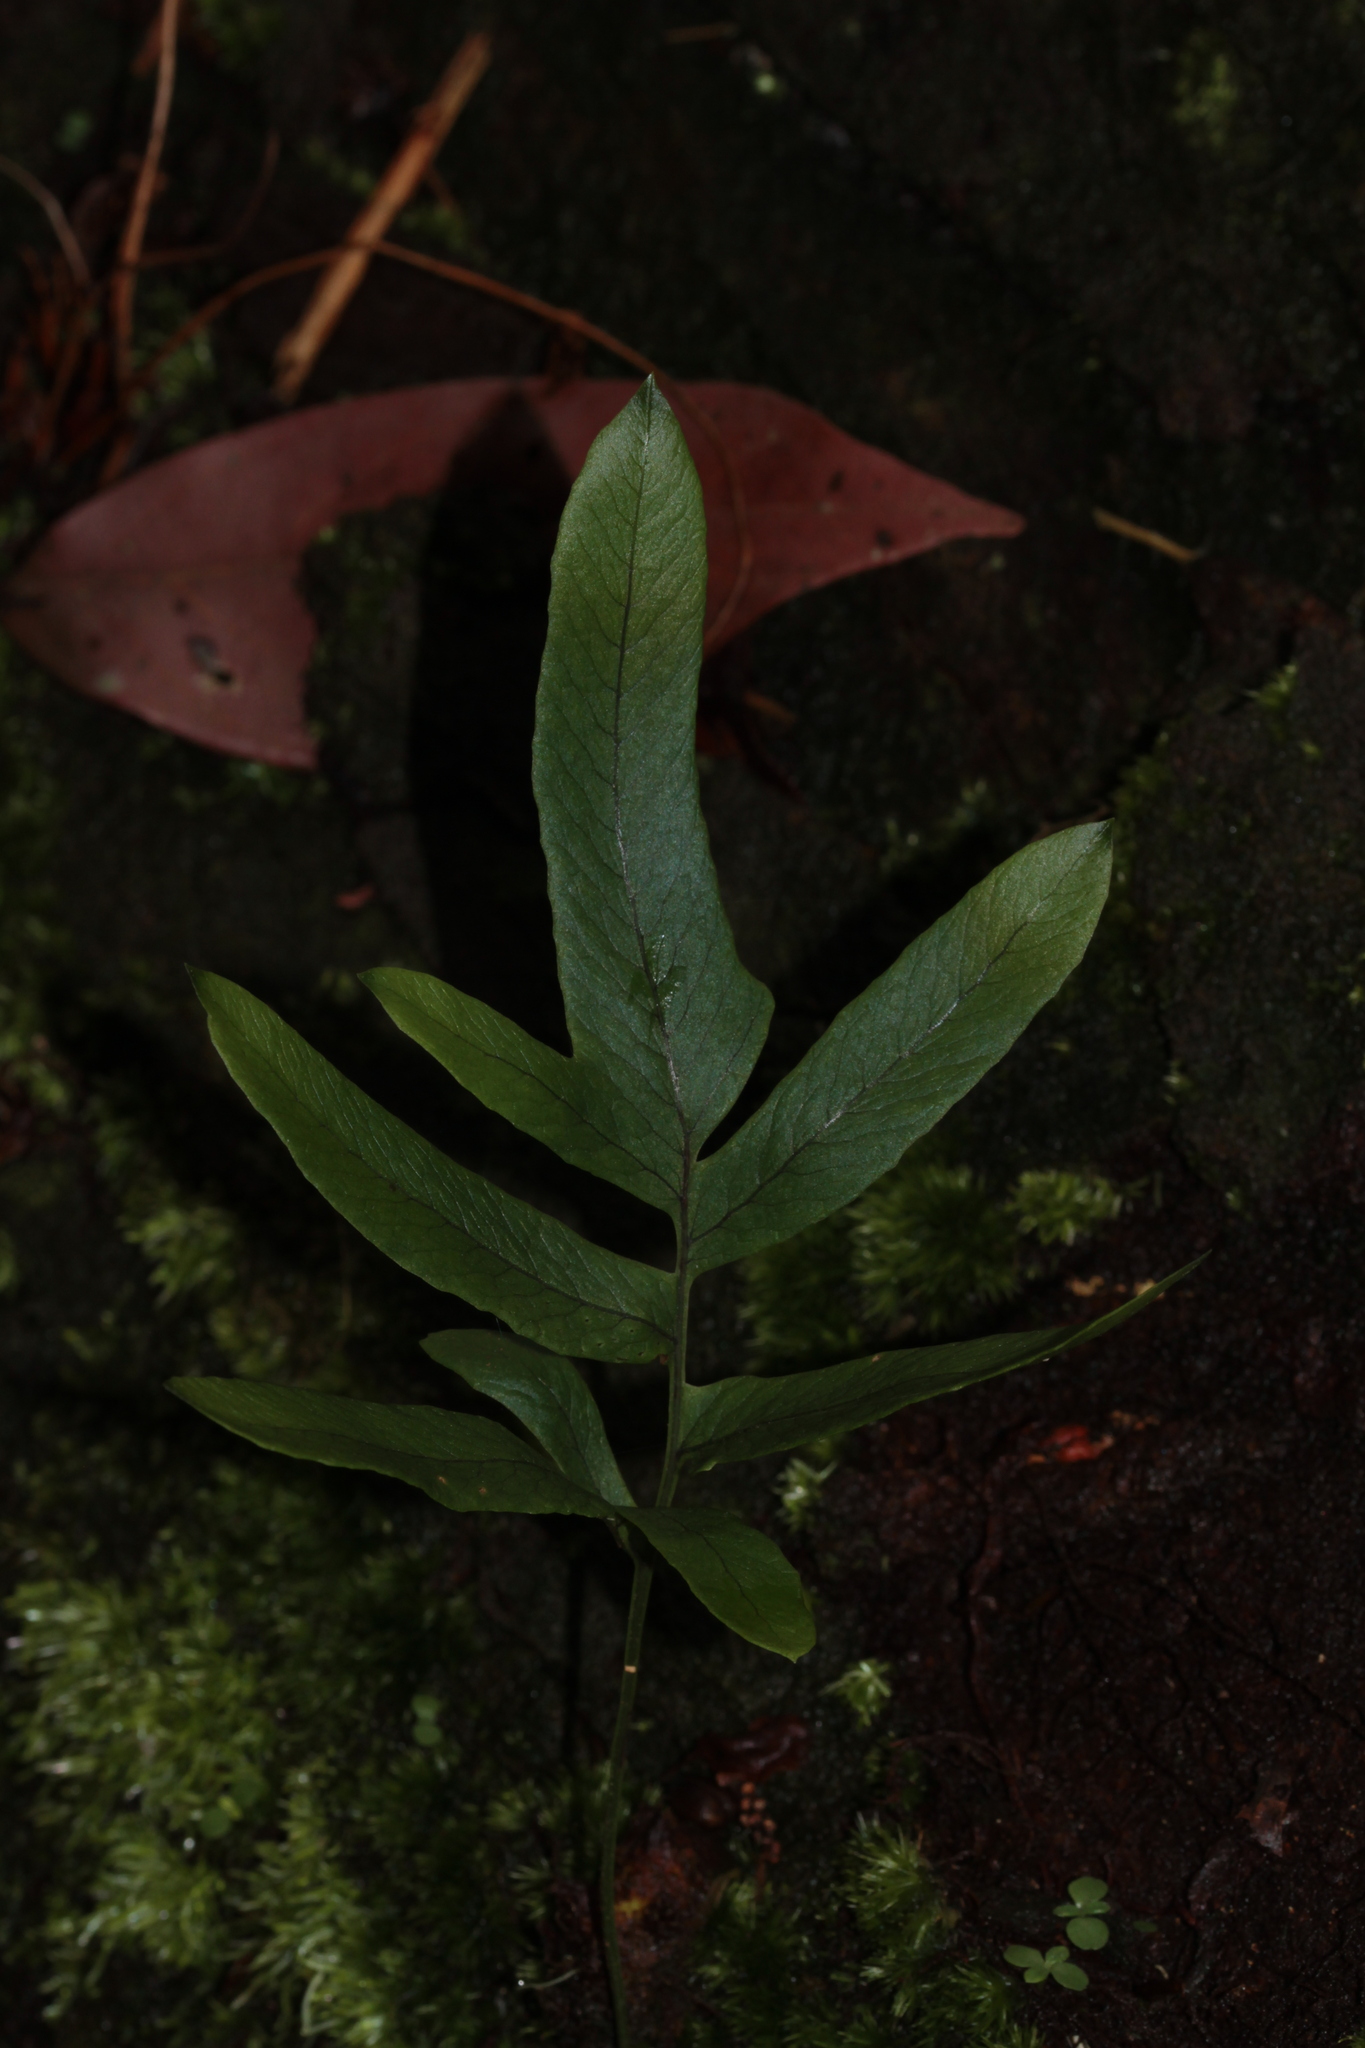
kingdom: Plantae
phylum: Tracheophyta
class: Polypodiopsida
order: Polypodiales
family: Polypodiaceae
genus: Serpocaulon
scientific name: Serpocaulon attenuatum
